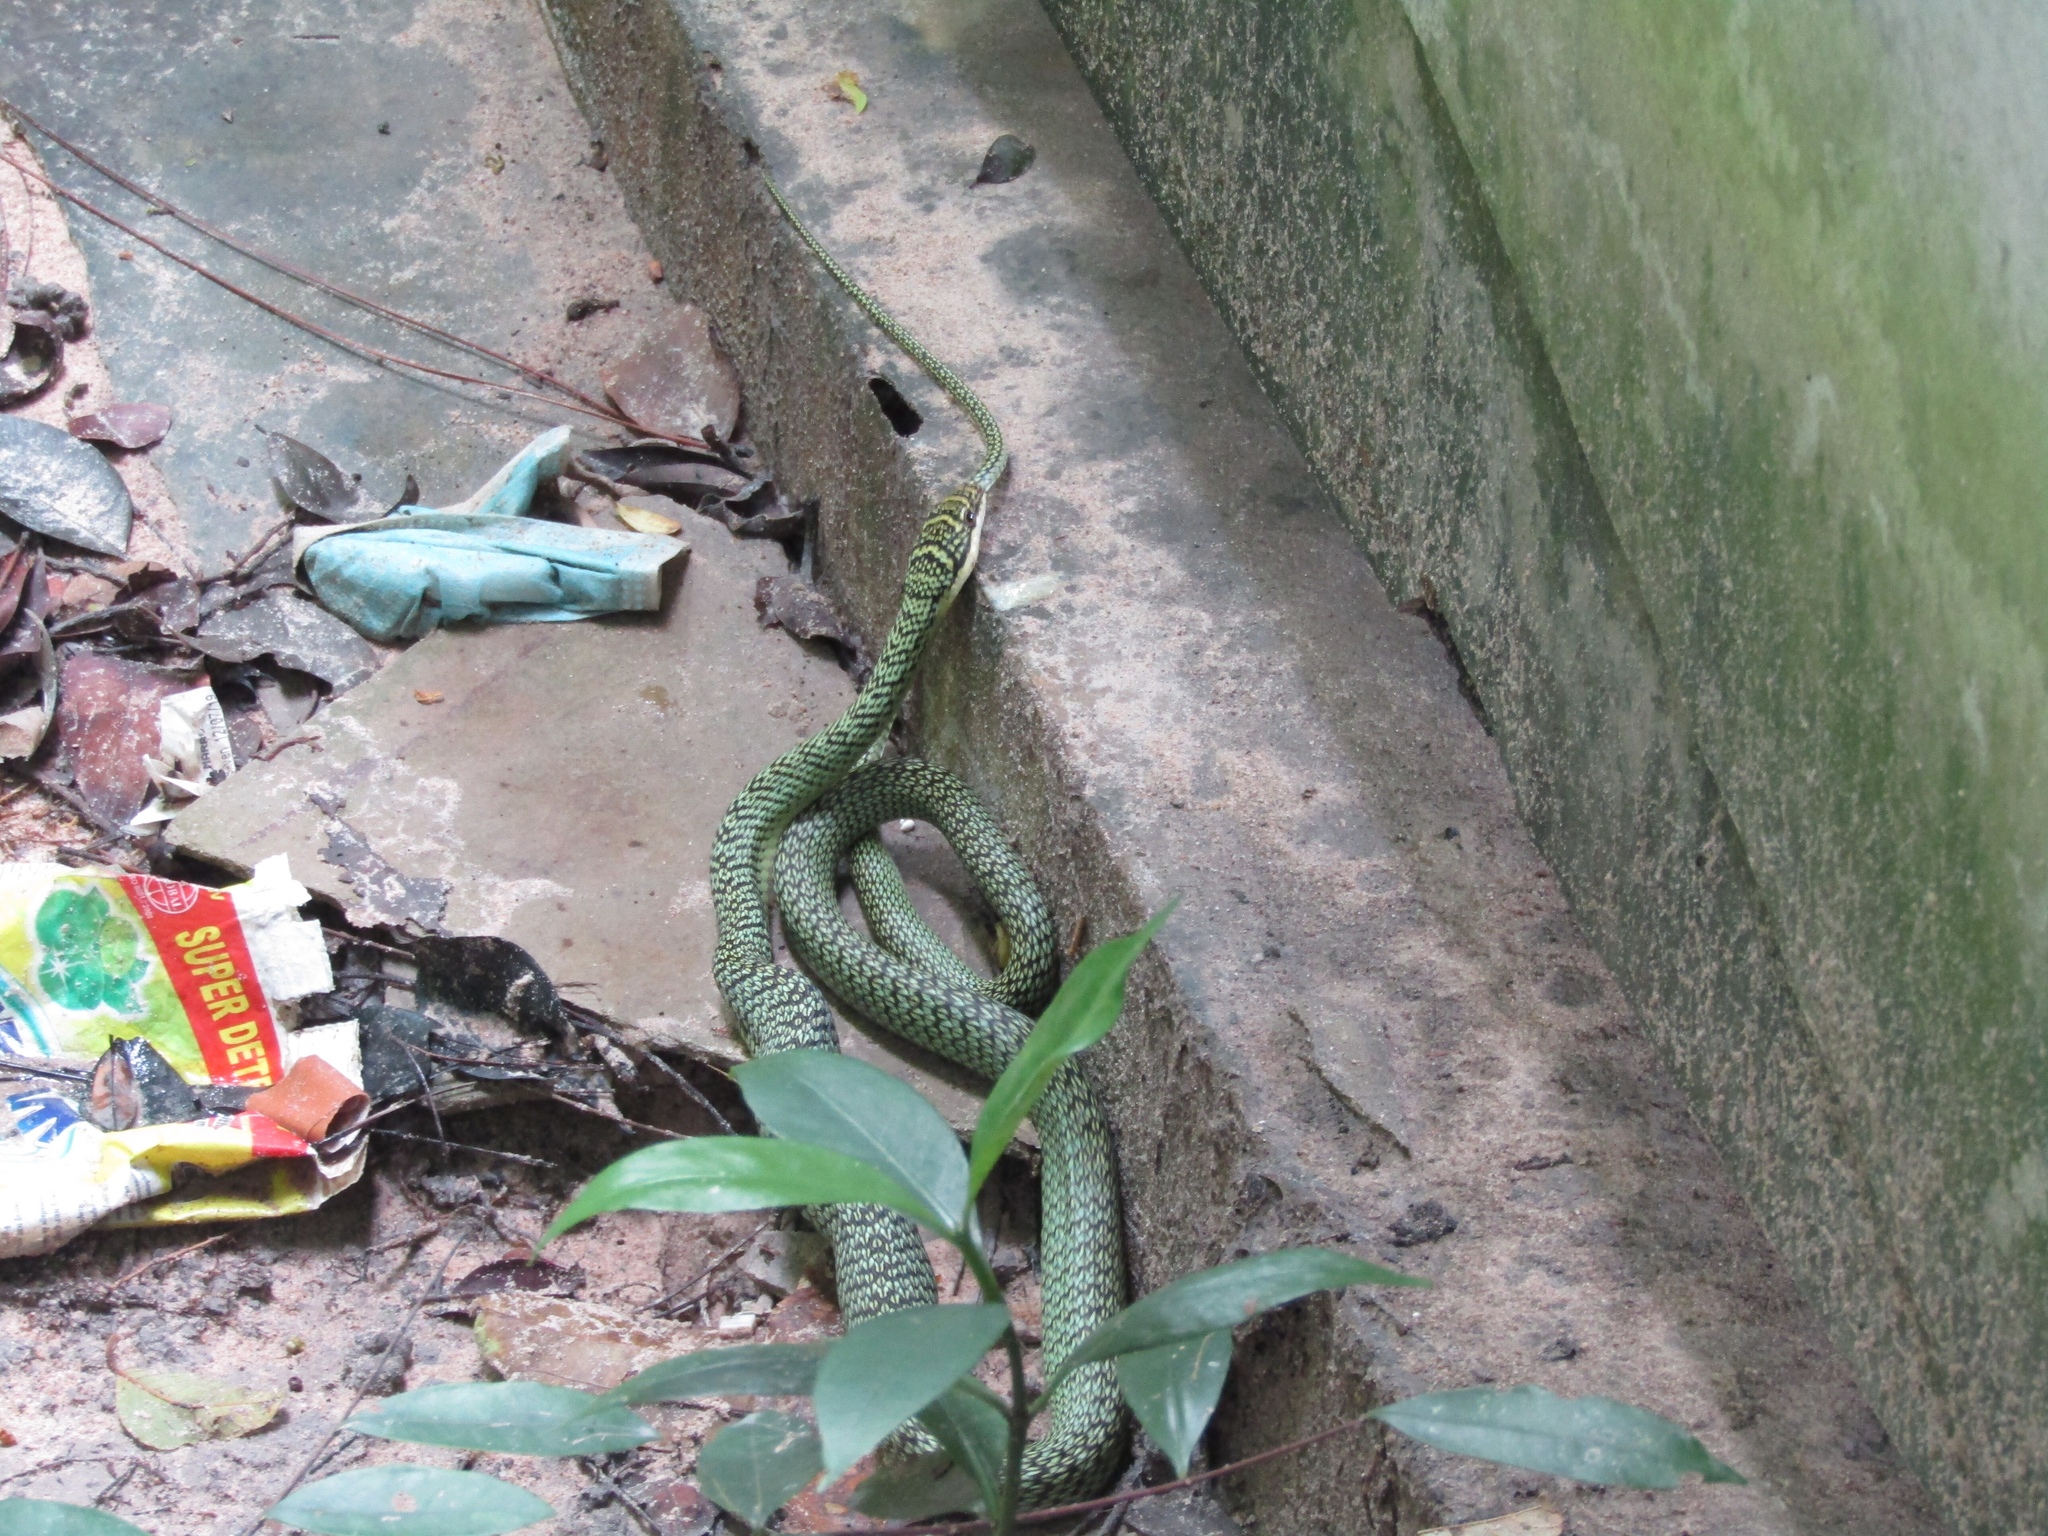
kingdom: Animalia
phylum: Chordata
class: Squamata
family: Colubridae
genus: Chrysopelea
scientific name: Chrysopelea ornata
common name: Golden flying snake
